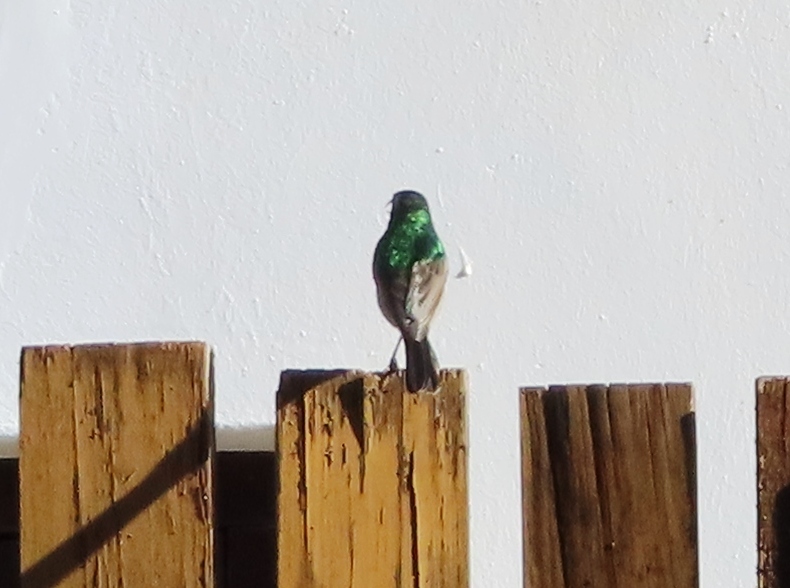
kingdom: Animalia
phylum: Chordata
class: Aves
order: Passeriformes
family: Nectariniidae
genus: Cinnyris
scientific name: Cinnyris chalybeus
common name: Southern double-collared sunbird
